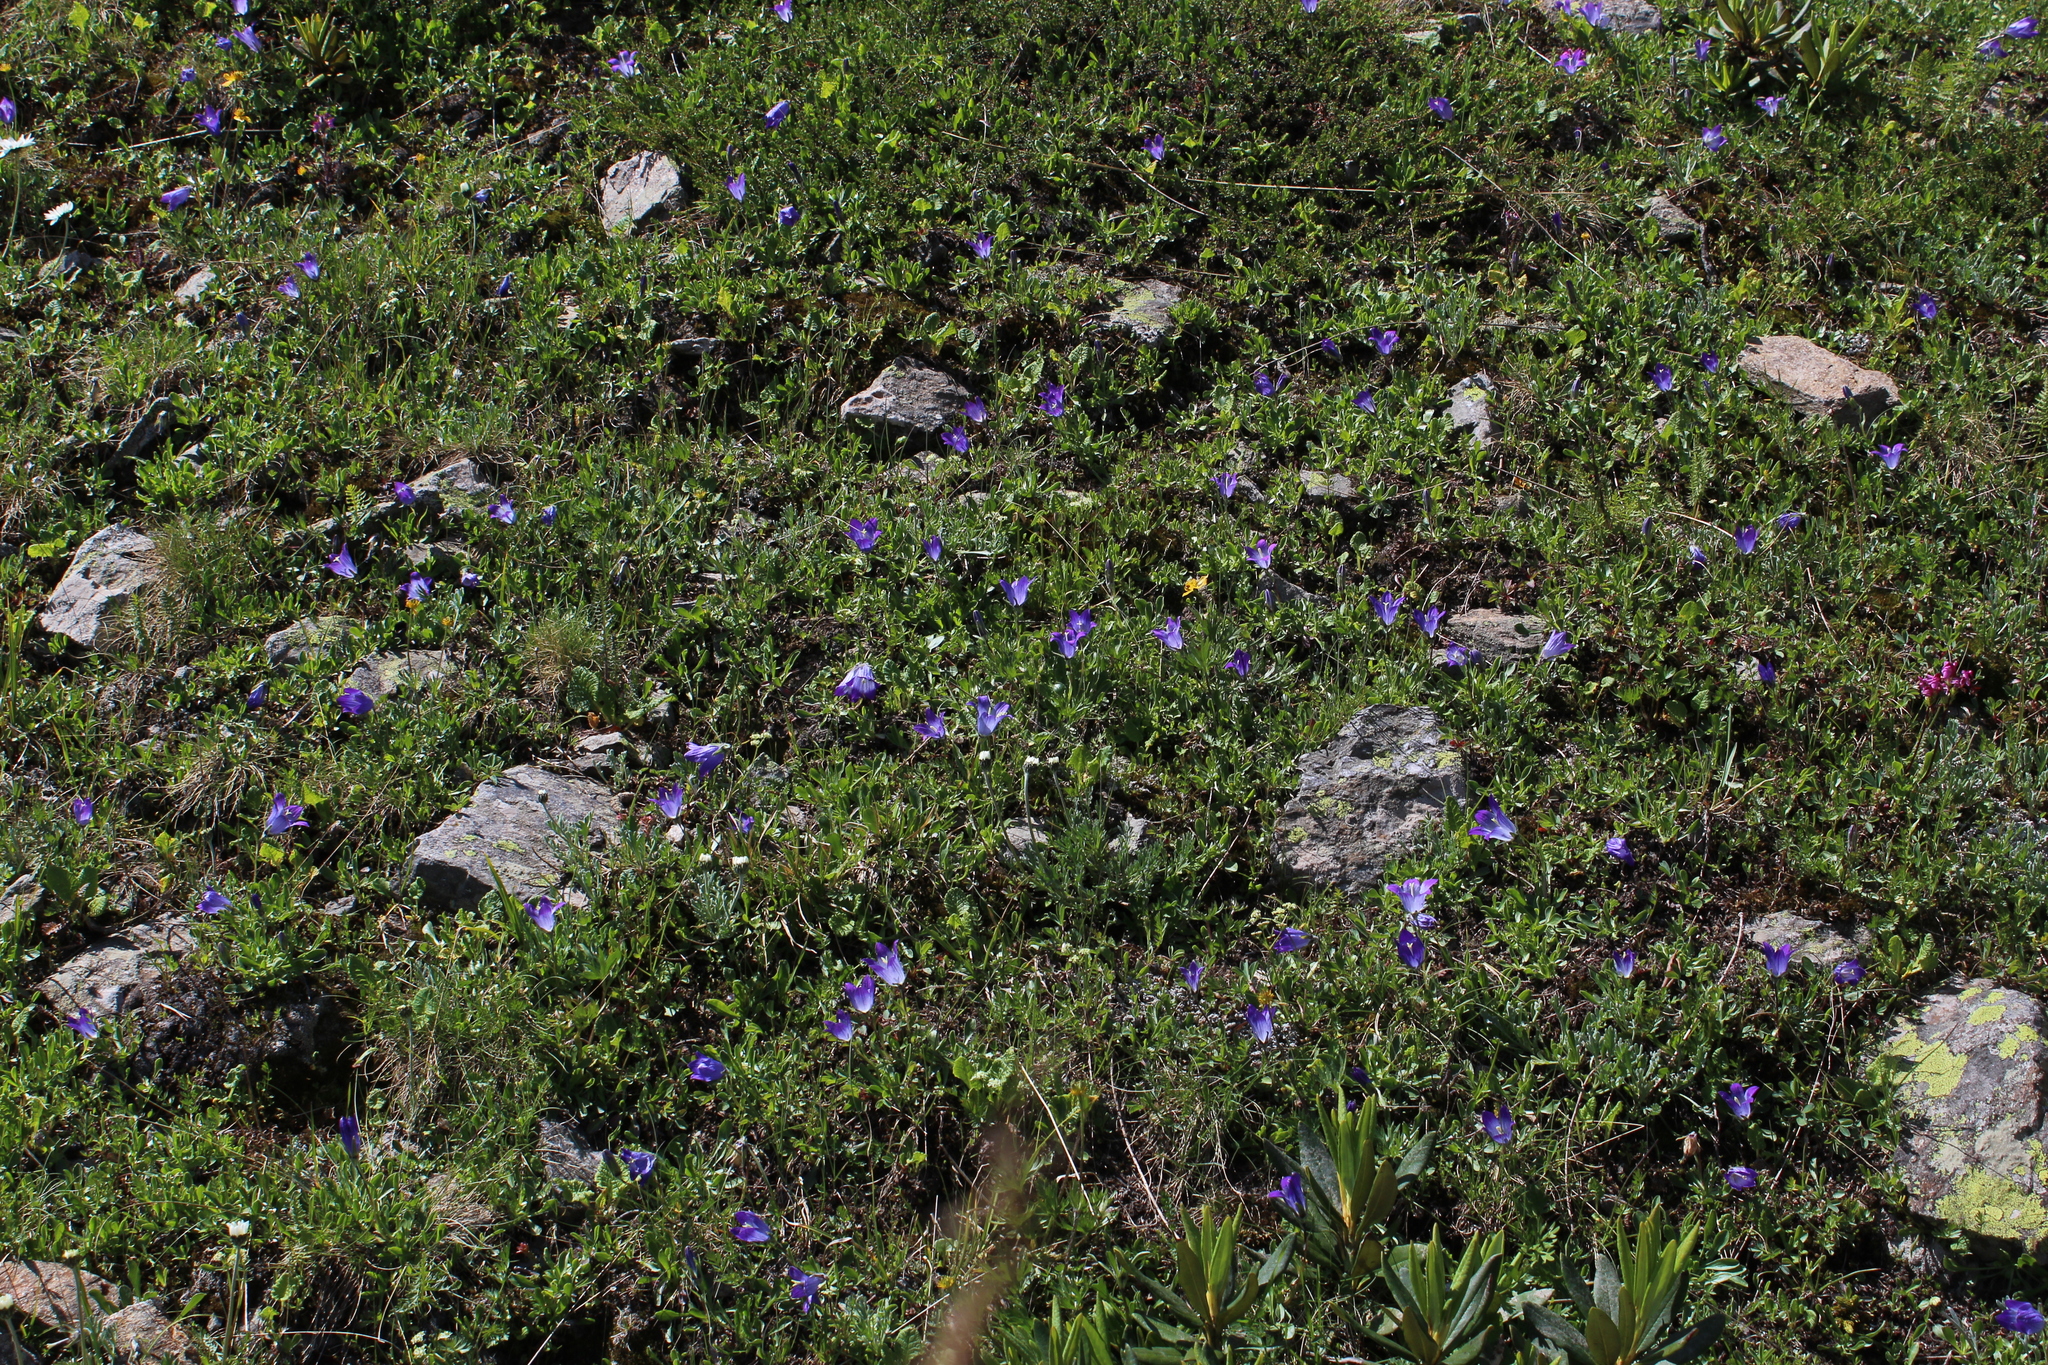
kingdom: Plantae
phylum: Tracheophyta
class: Magnoliopsida
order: Asterales
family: Campanulaceae
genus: Campanula
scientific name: Campanula tridentata
